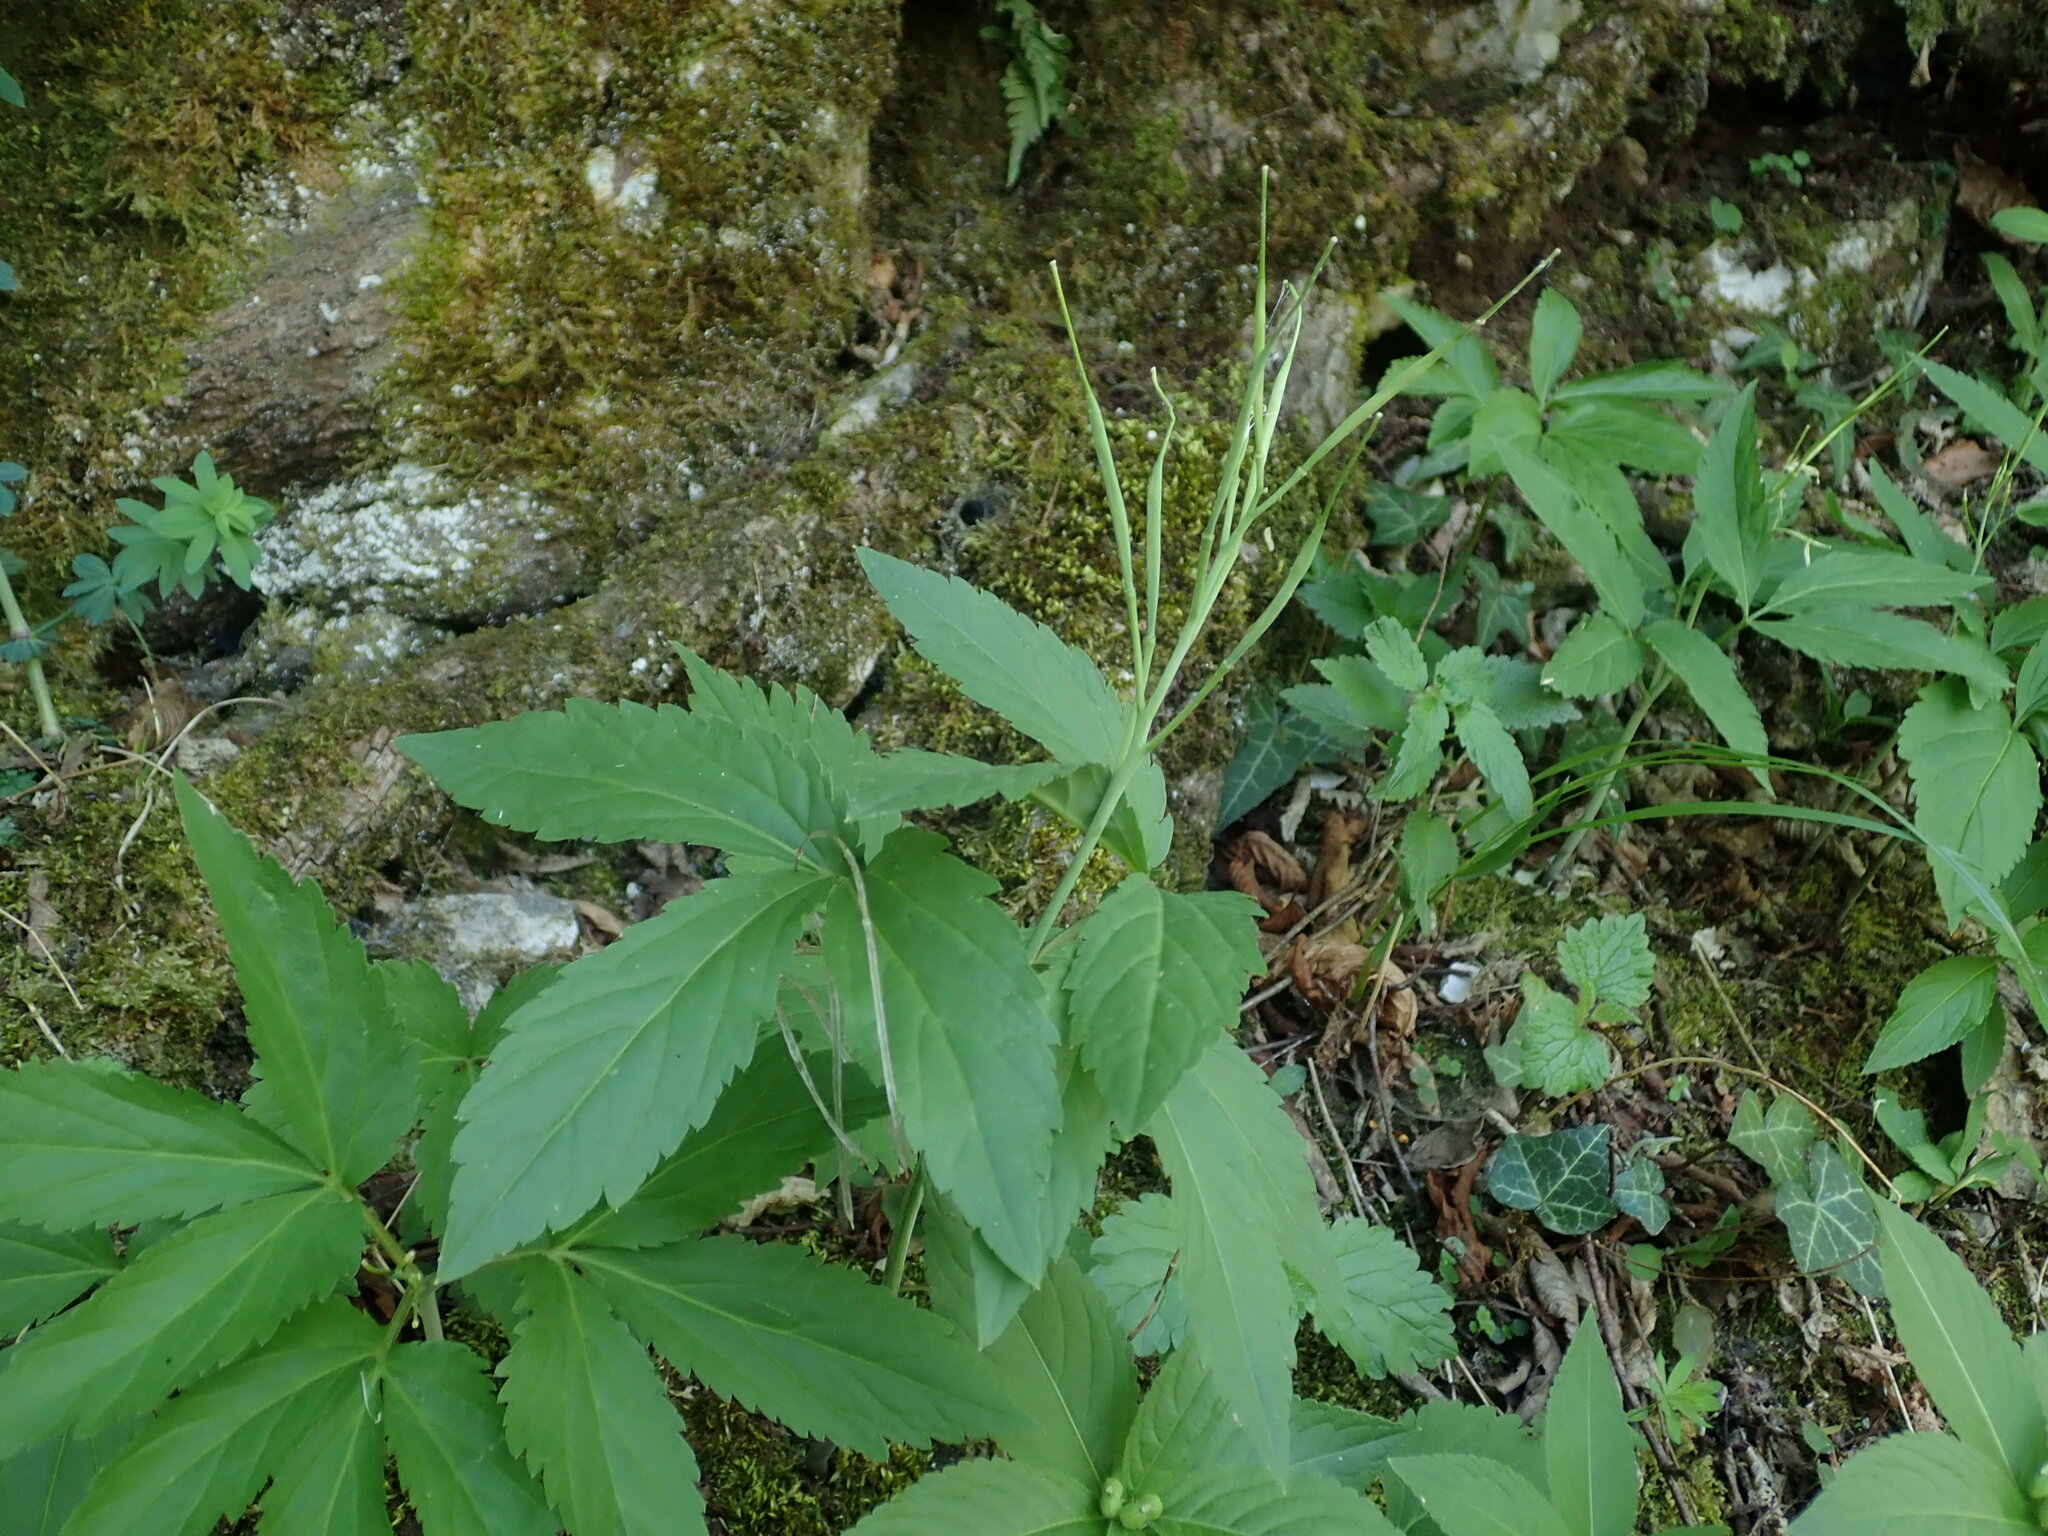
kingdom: Plantae
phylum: Tracheophyta
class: Magnoliopsida
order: Brassicales
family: Brassicaceae
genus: Cardamine
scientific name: Cardamine enneaphyllos
